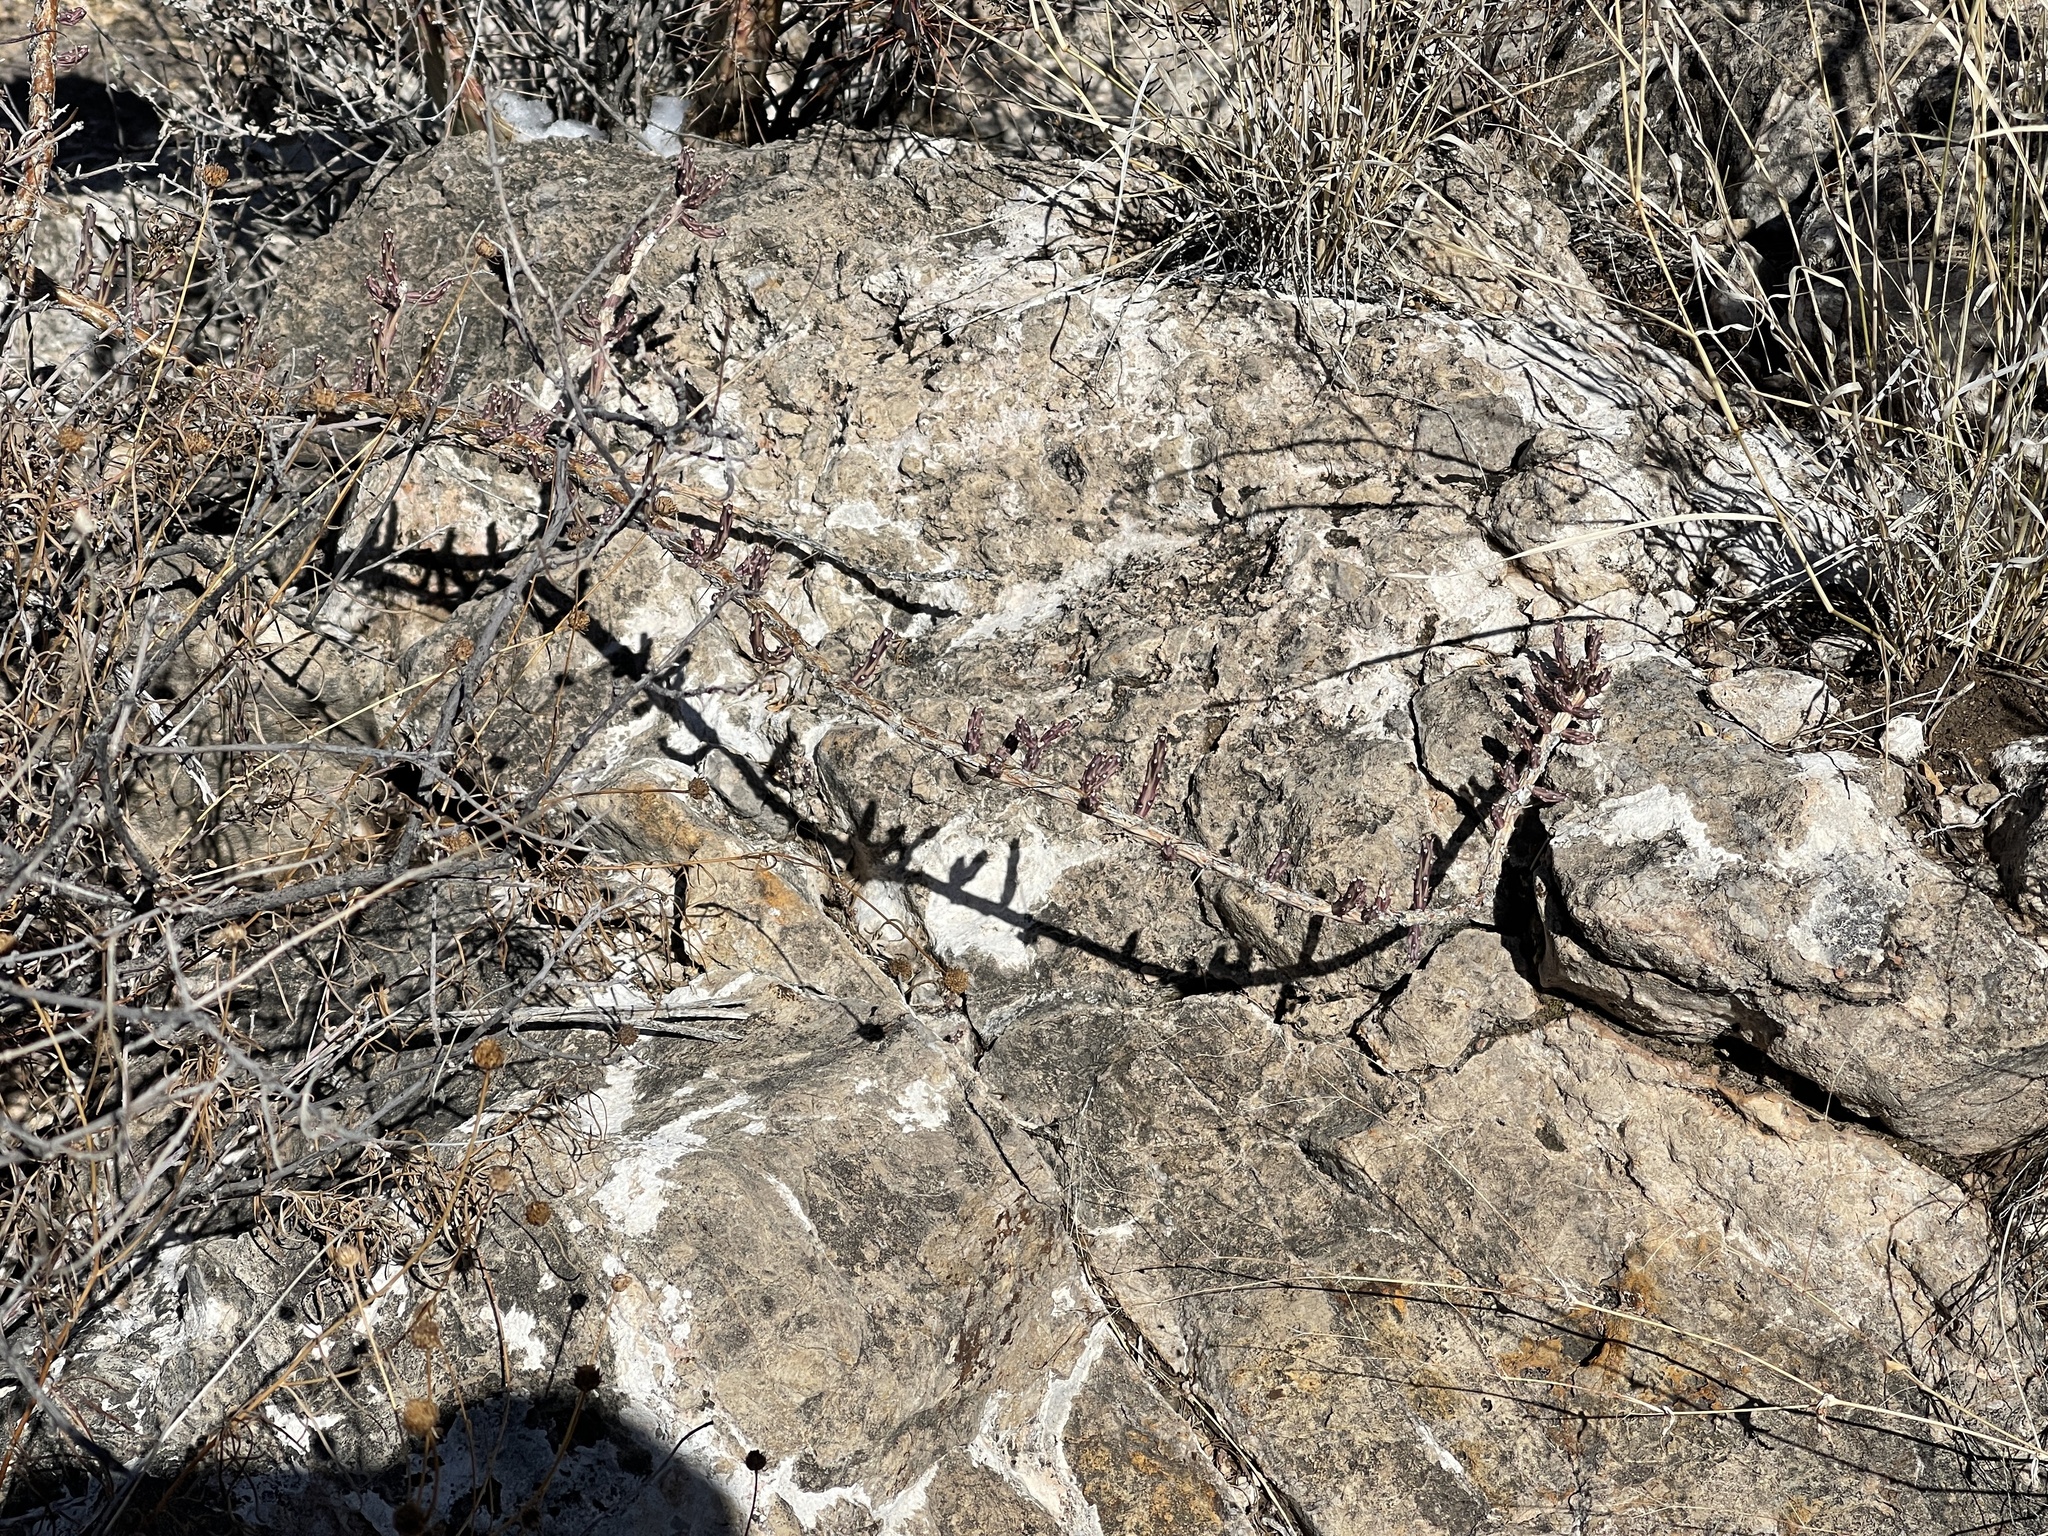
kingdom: Plantae
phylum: Tracheophyta
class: Magnoliopsida
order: Caryophyllales
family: Cactaceae
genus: Cylindropuntia
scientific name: Cylindropuntia leptocaulis
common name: Christmas cactus
